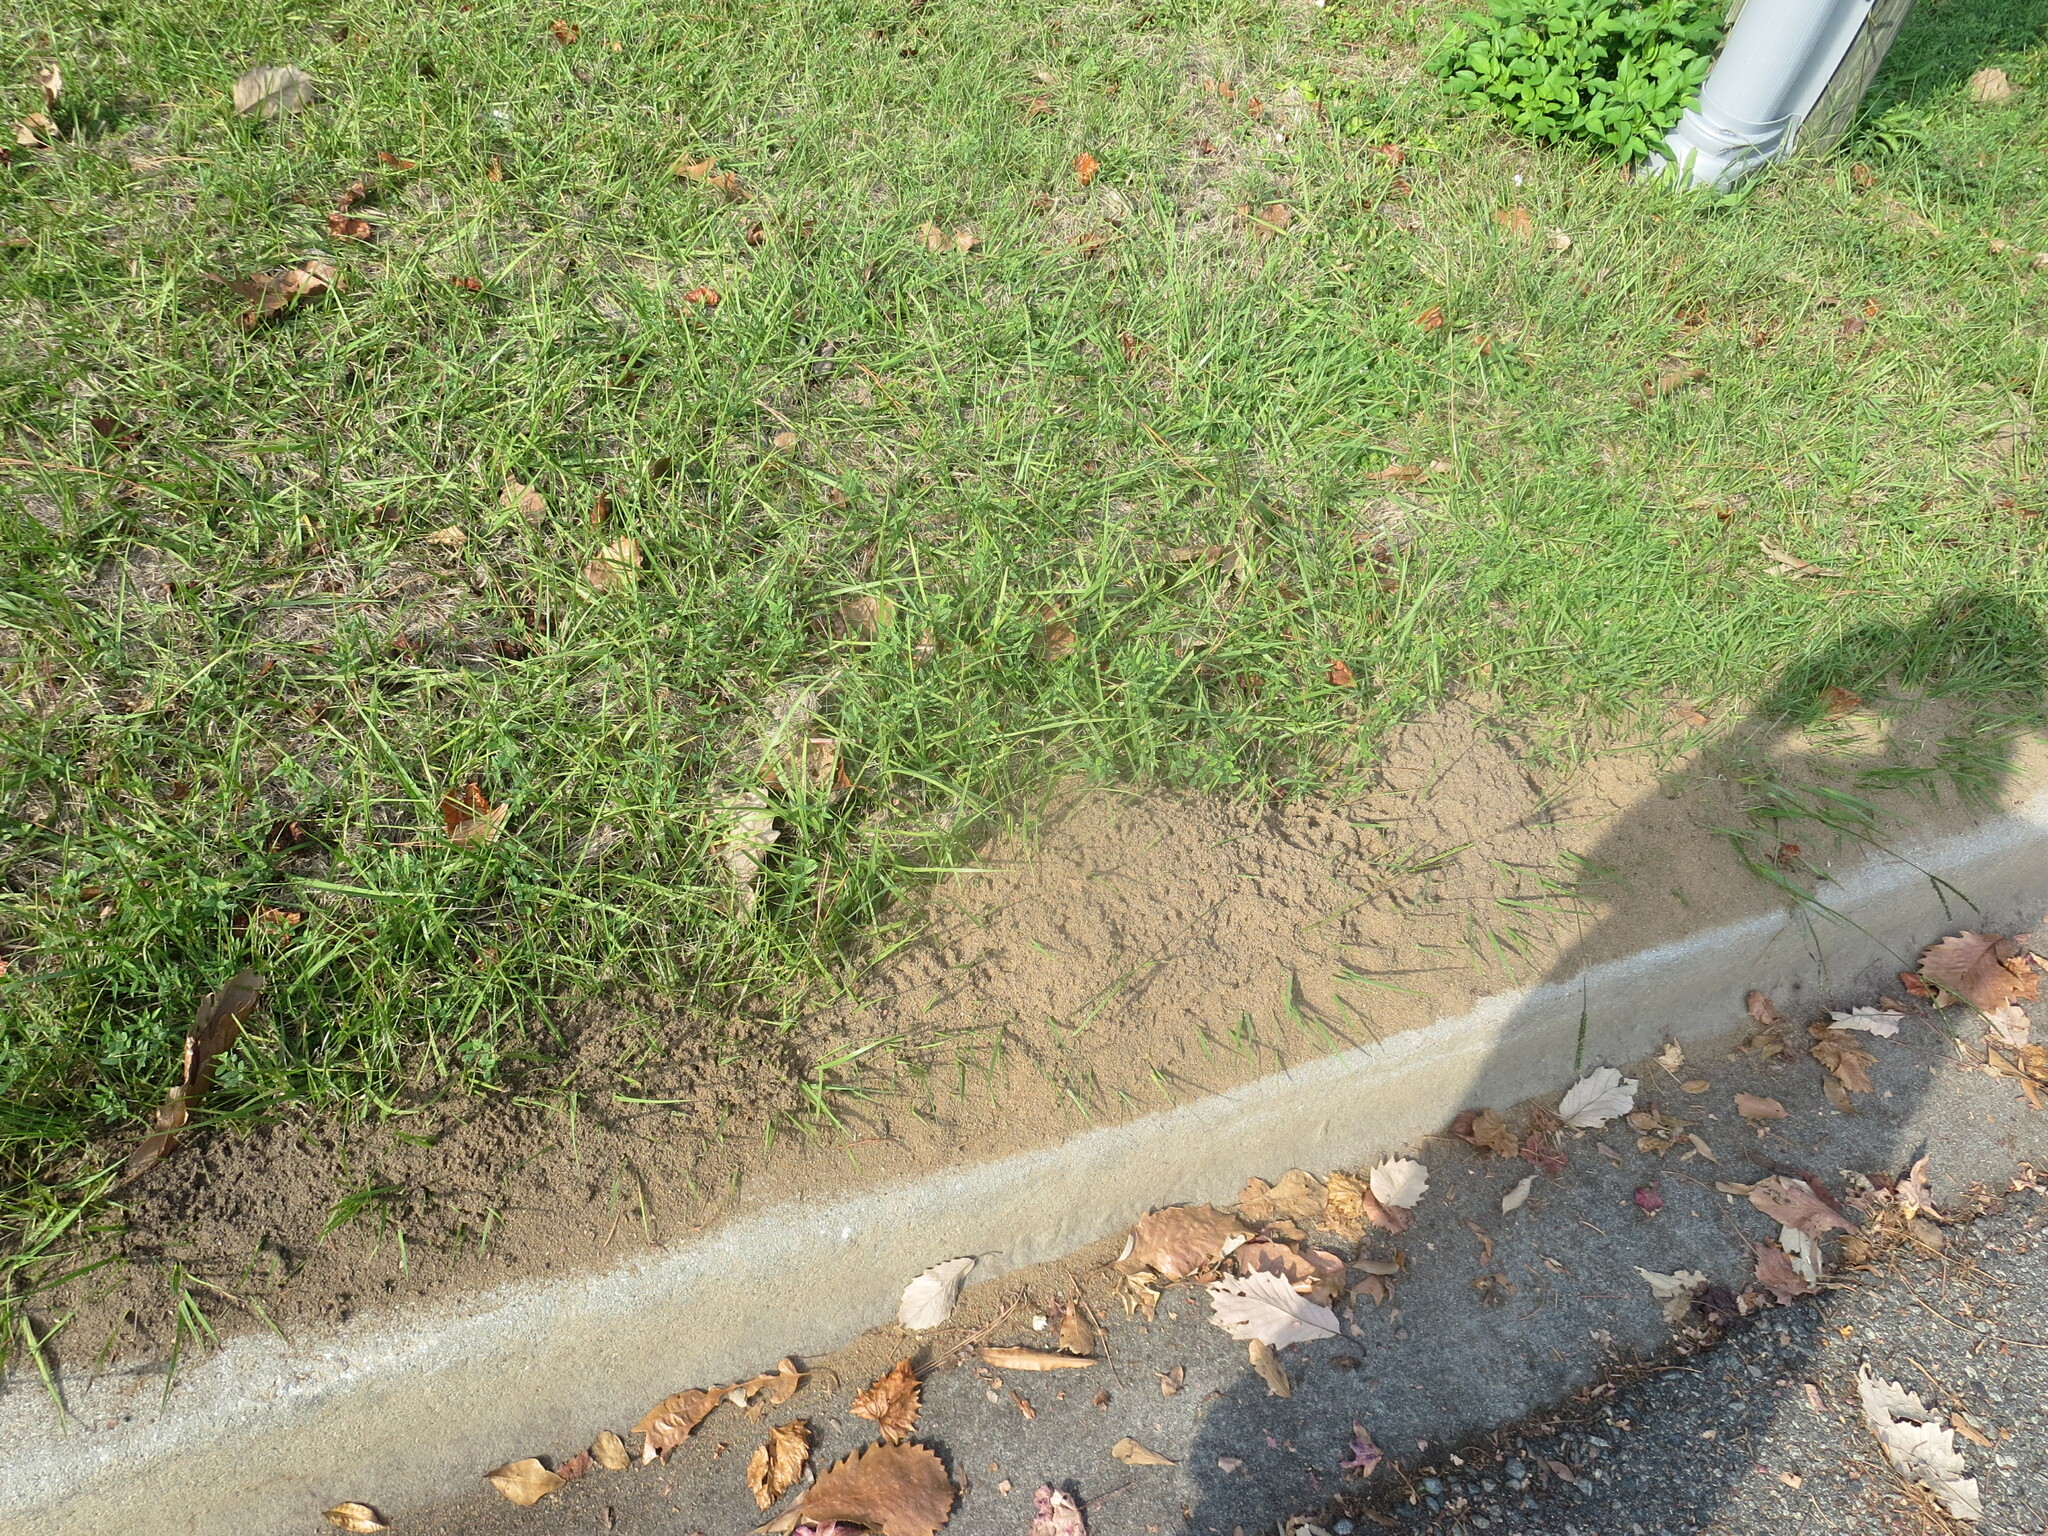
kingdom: Animalia
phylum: Arthropoda
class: Insecta
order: Hymenoptera
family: Formicidae
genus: Solenopsis
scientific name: Solenopsis invicta
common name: Red imported fire ant
